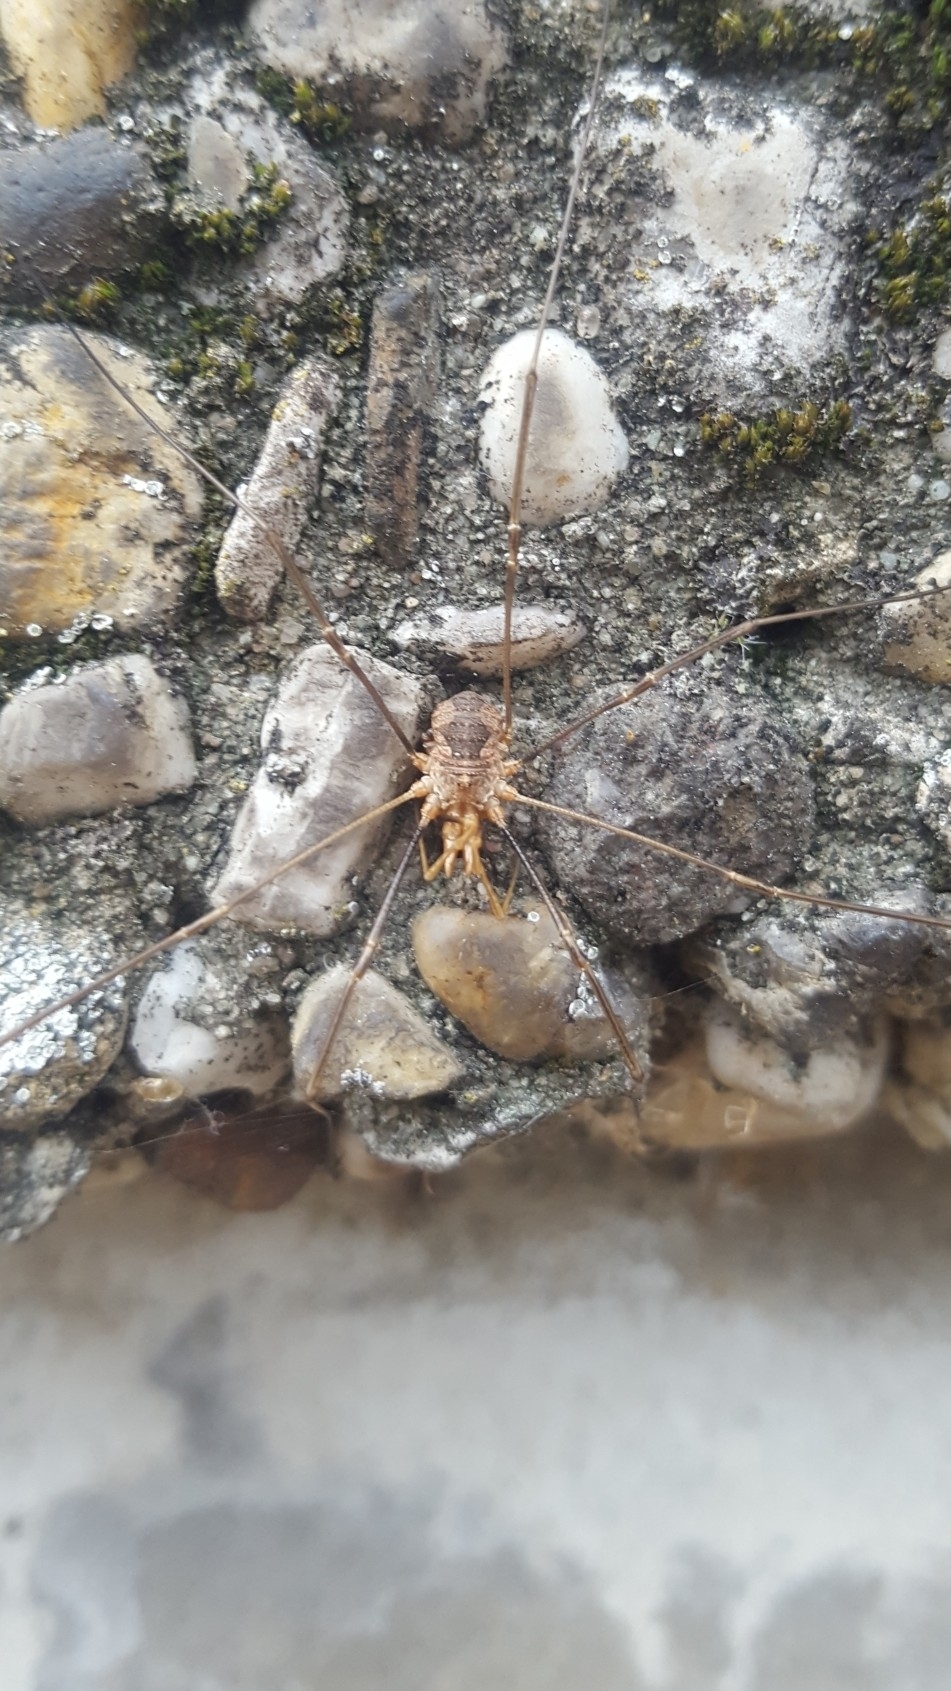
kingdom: Animalia
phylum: Arthropoda
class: Arachnida
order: Opiliones
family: Phalangiidae
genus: Phalangium
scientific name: Phalangium opilio
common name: Daddy longleg
